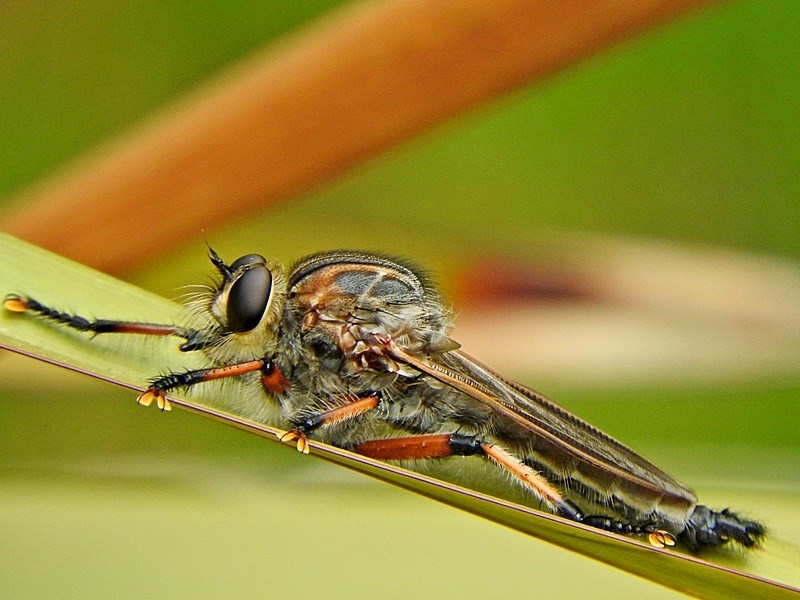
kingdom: Animalia
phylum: Arthropoda
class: Insecta
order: Diptera
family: Asilidae
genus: Neoaratus
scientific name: Neoaratus hercules
